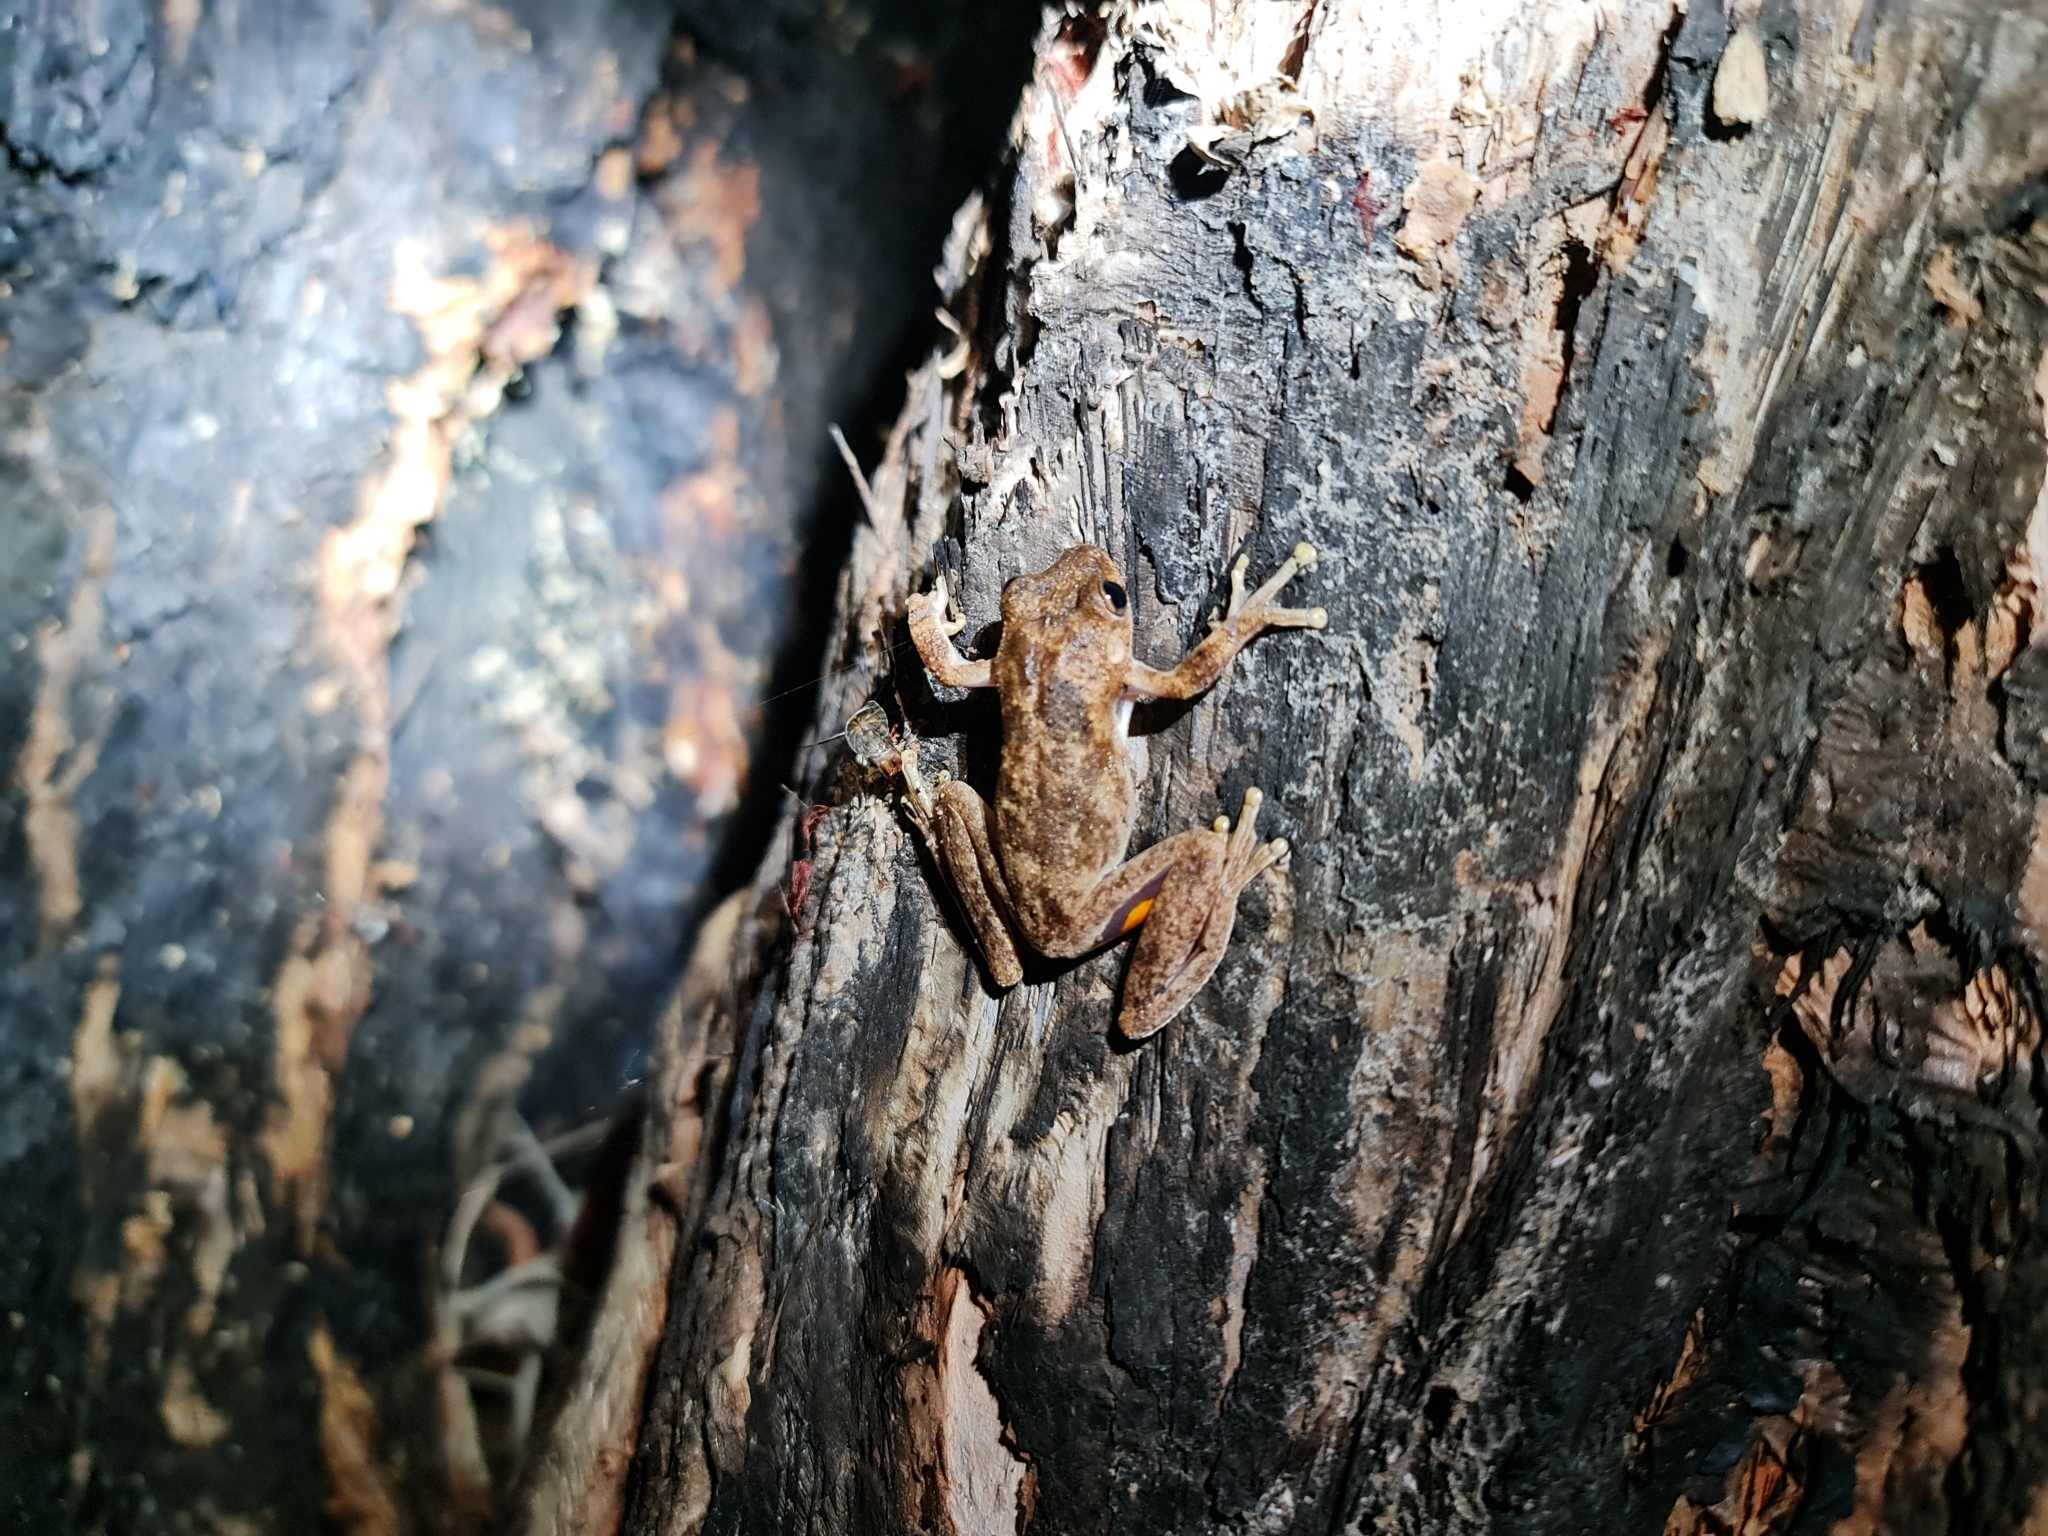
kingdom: Animalia
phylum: Chordata
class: Amphibia
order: Anura
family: Pelodryadidae
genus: Litoria
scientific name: Litoria
